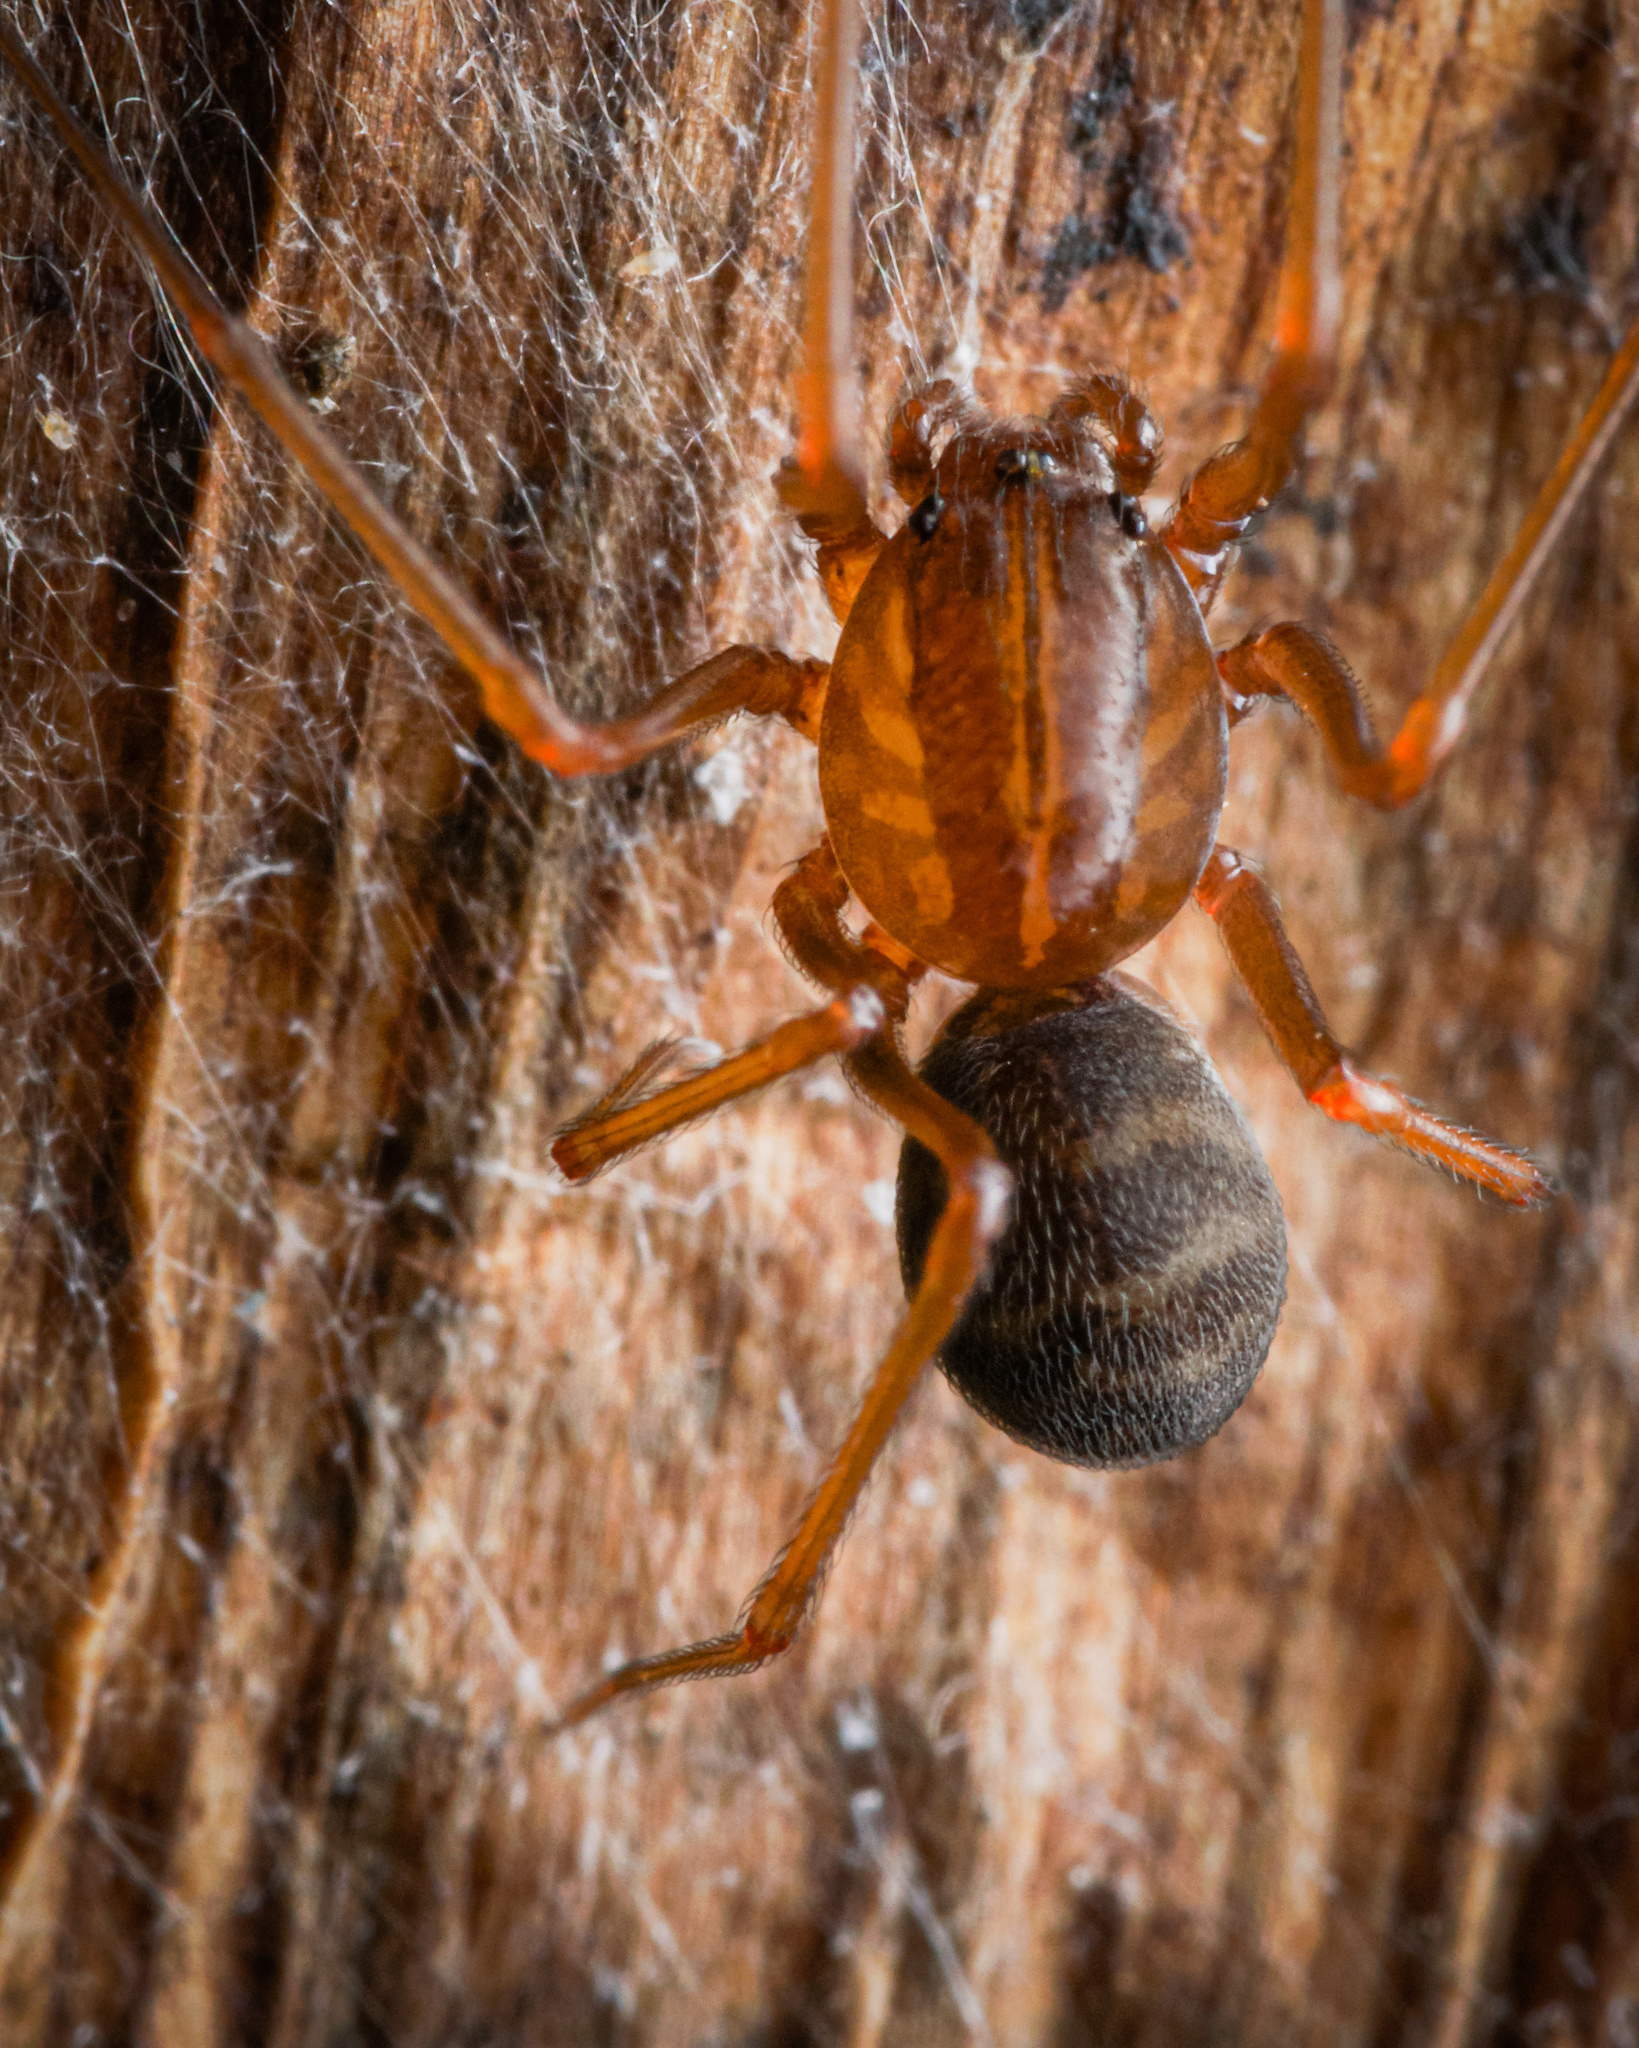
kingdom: Animalia
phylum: Arthropoda
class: Arachnida
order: Araneae
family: Scytodidae
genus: Scytodes
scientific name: Scytodes fusca
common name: Spitting spiders
